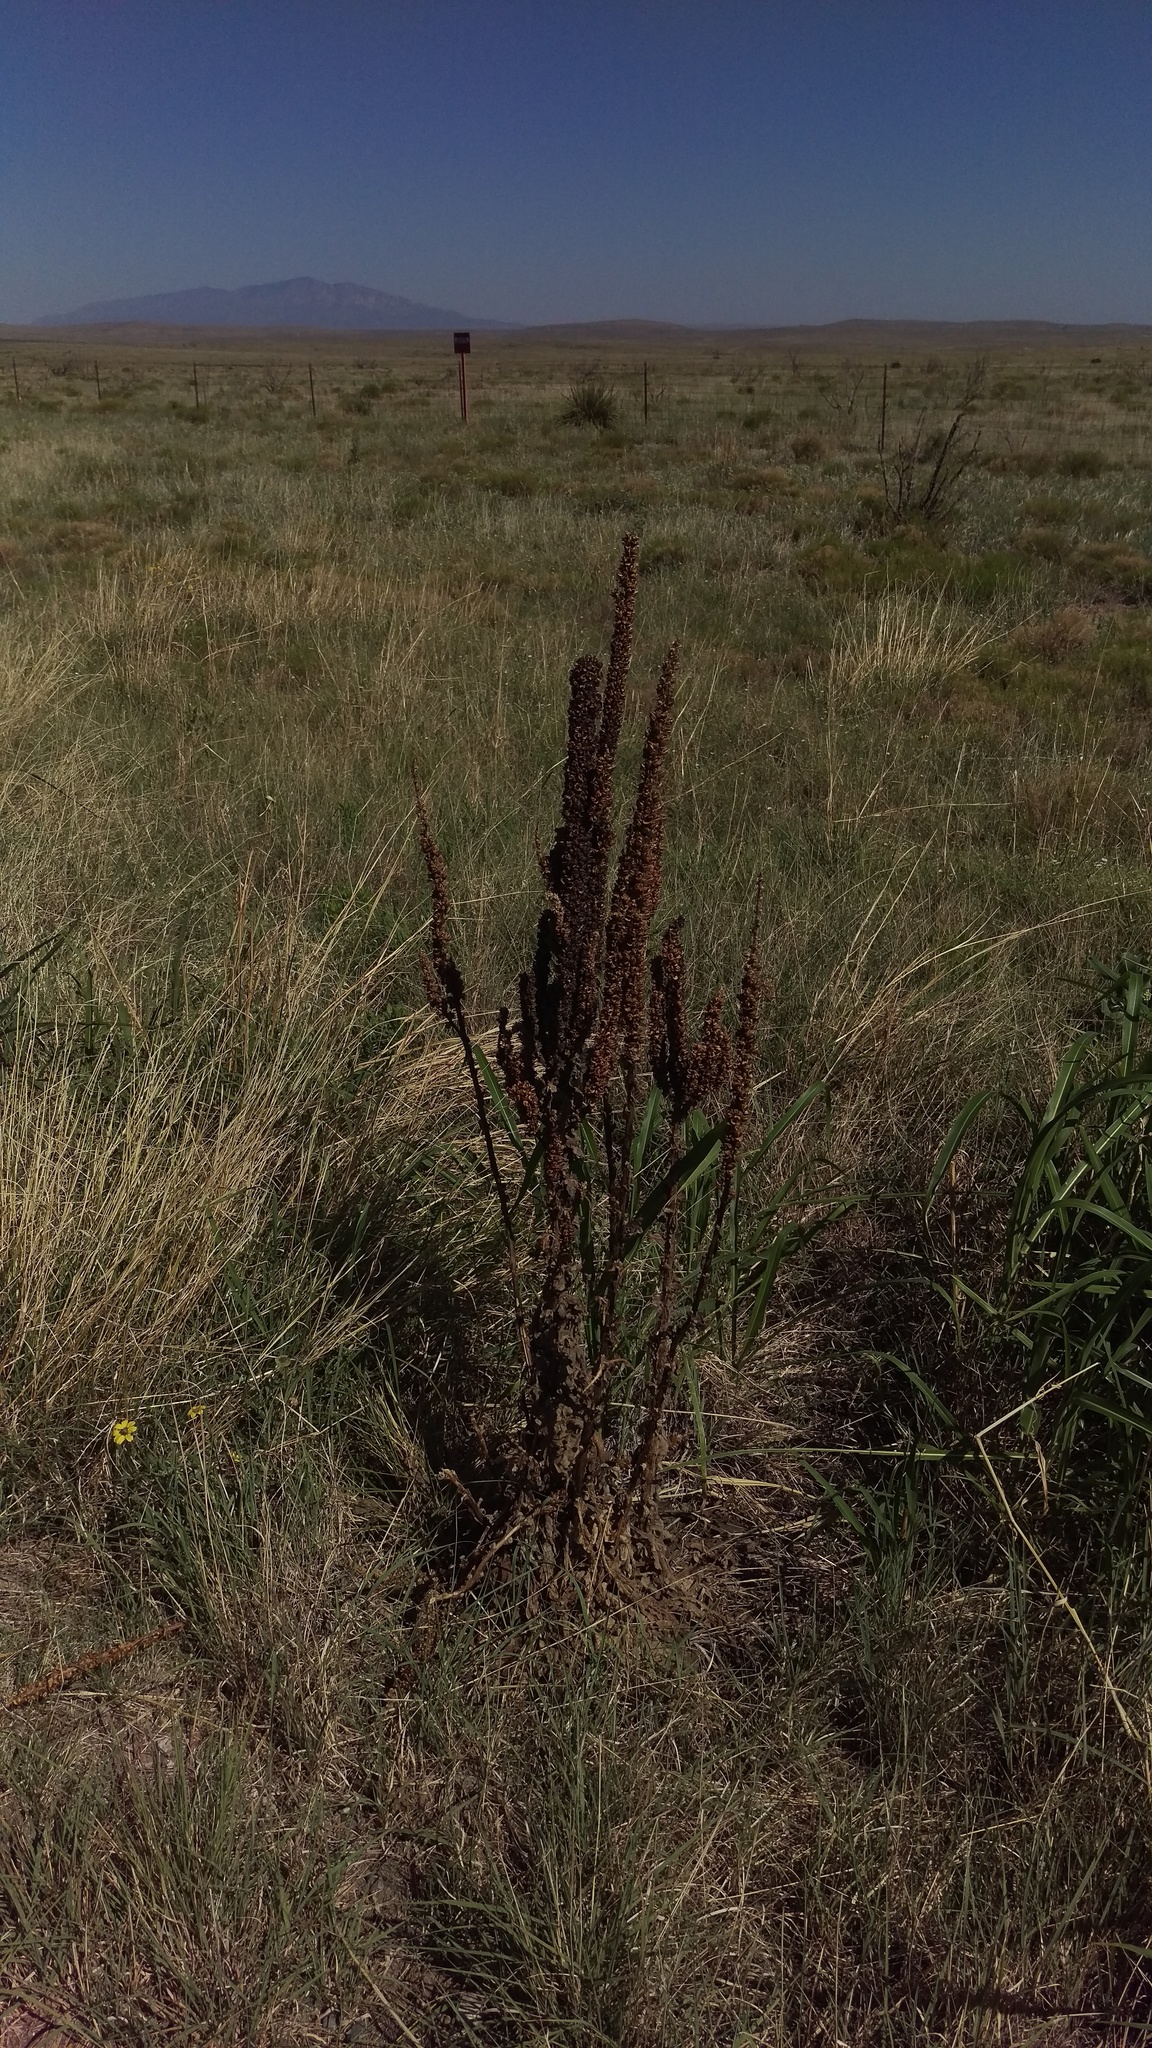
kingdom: Plantae
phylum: Tracheophyta
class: Magnoliopsida
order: Lamiales
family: Scrophulariaceae
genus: Verbascum
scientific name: Verbascum thapsus
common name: Common mullein
